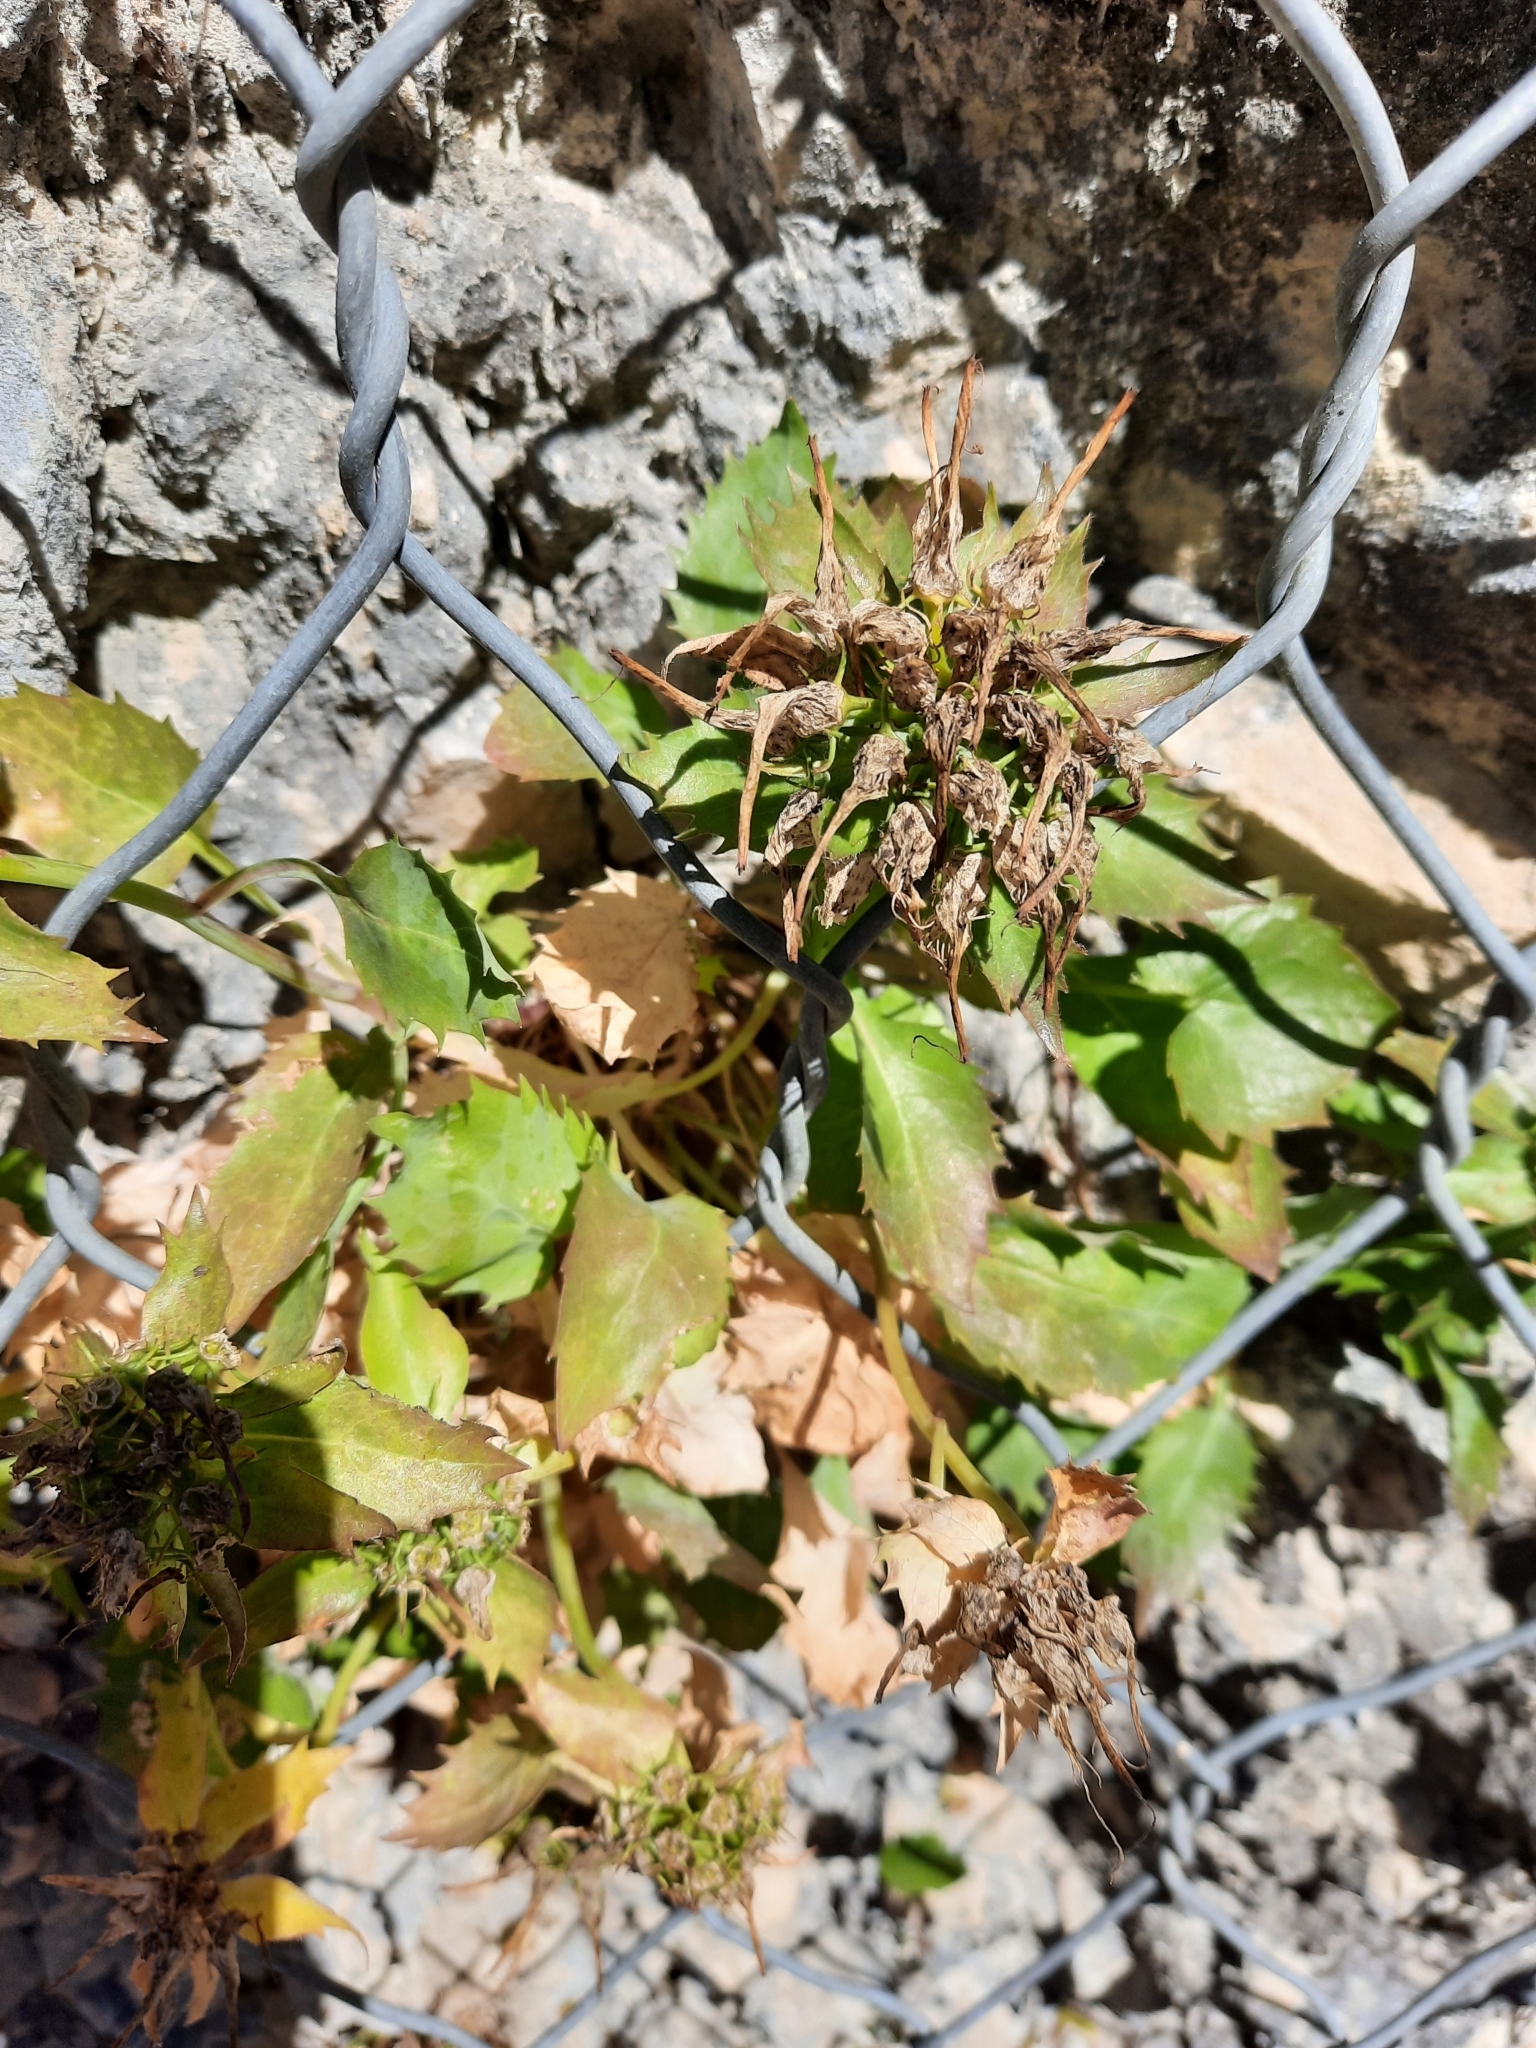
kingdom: Plantae
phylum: Tracheophyta
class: Magnoliopsida
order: Asterales
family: Campanulaceae
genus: Physoplexis
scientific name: Physoplexis comosa
